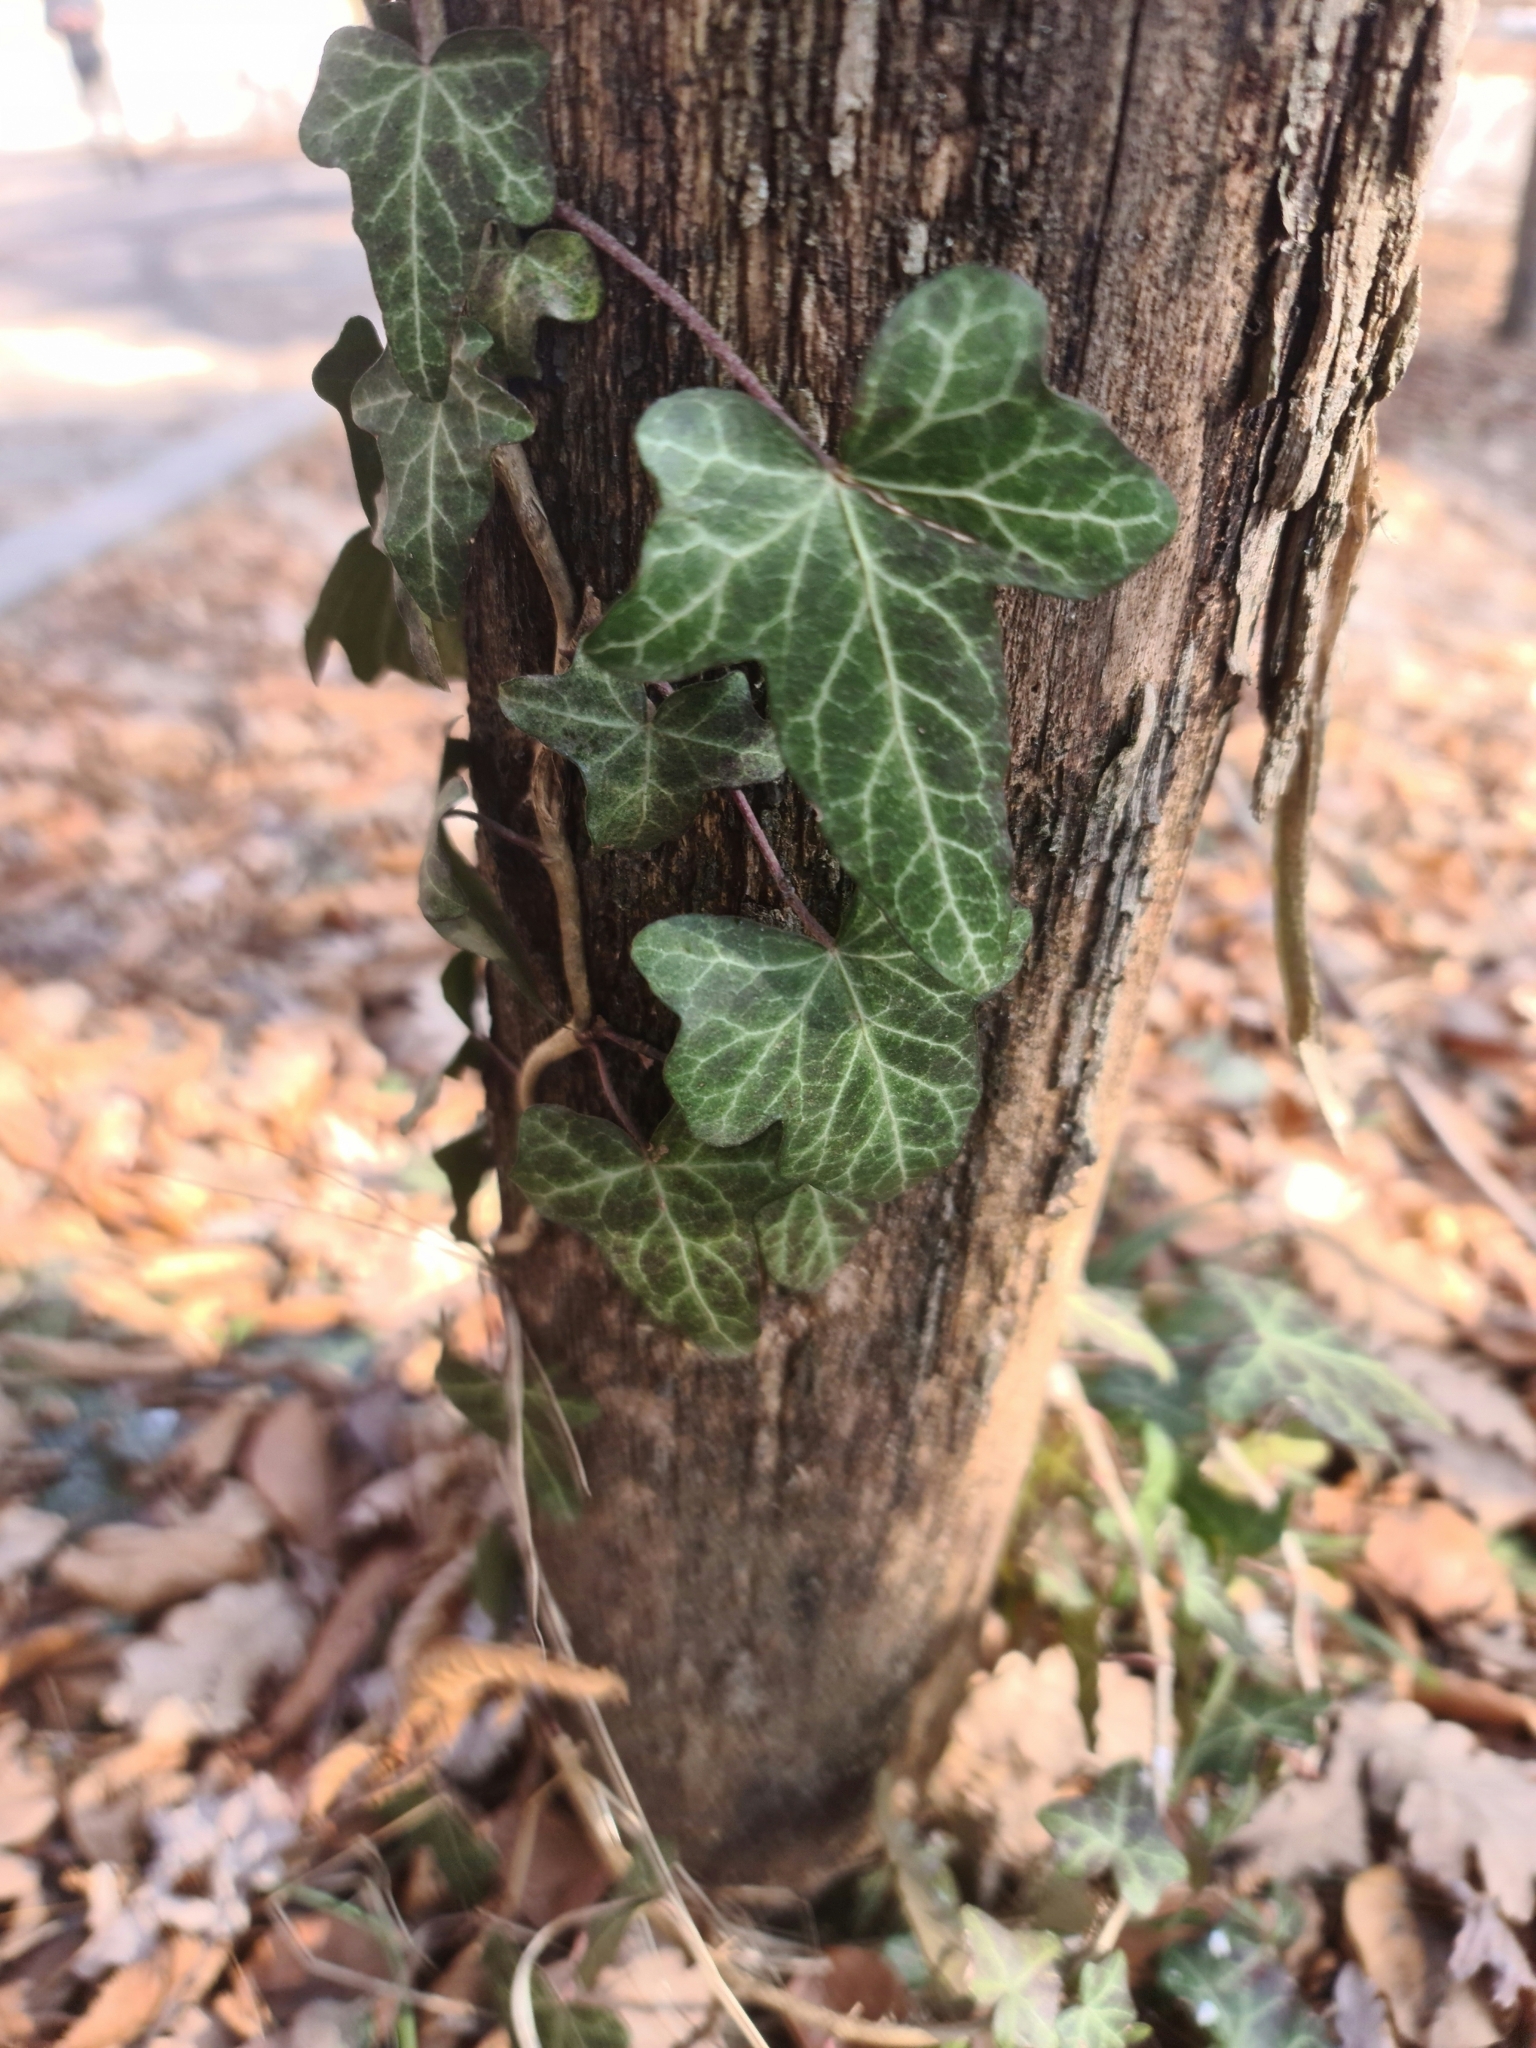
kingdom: Plantae
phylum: Tracheophyta
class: Magnoliopsida
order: Apiales
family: Araliaceae
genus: Hedera
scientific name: Hedera helix
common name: Ivy
